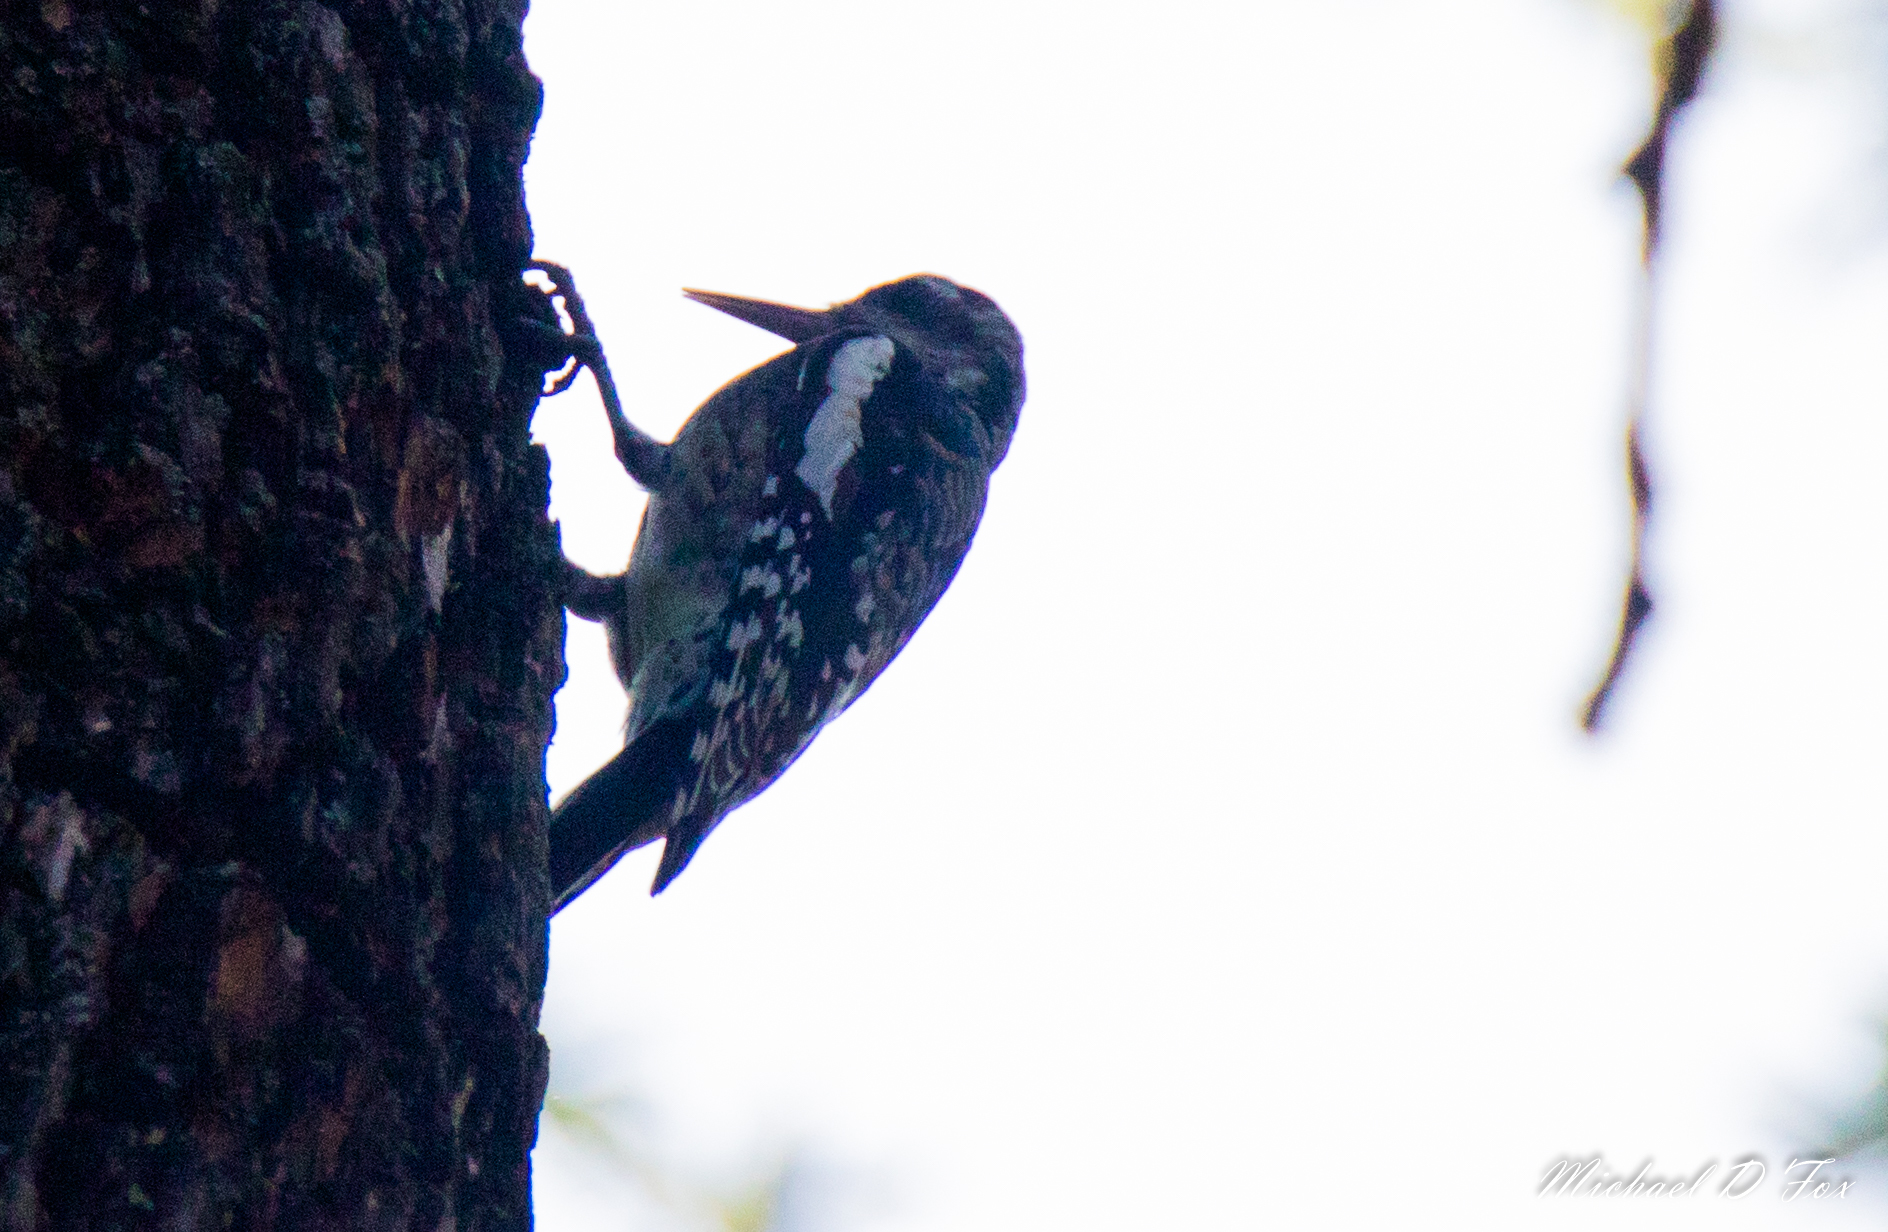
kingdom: Animalia
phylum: Chordata
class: Aves
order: Piciformes
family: Picidae
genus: Sphyrapicus
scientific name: Sphyrapicus varius
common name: Yellow-bellied sapsucker
